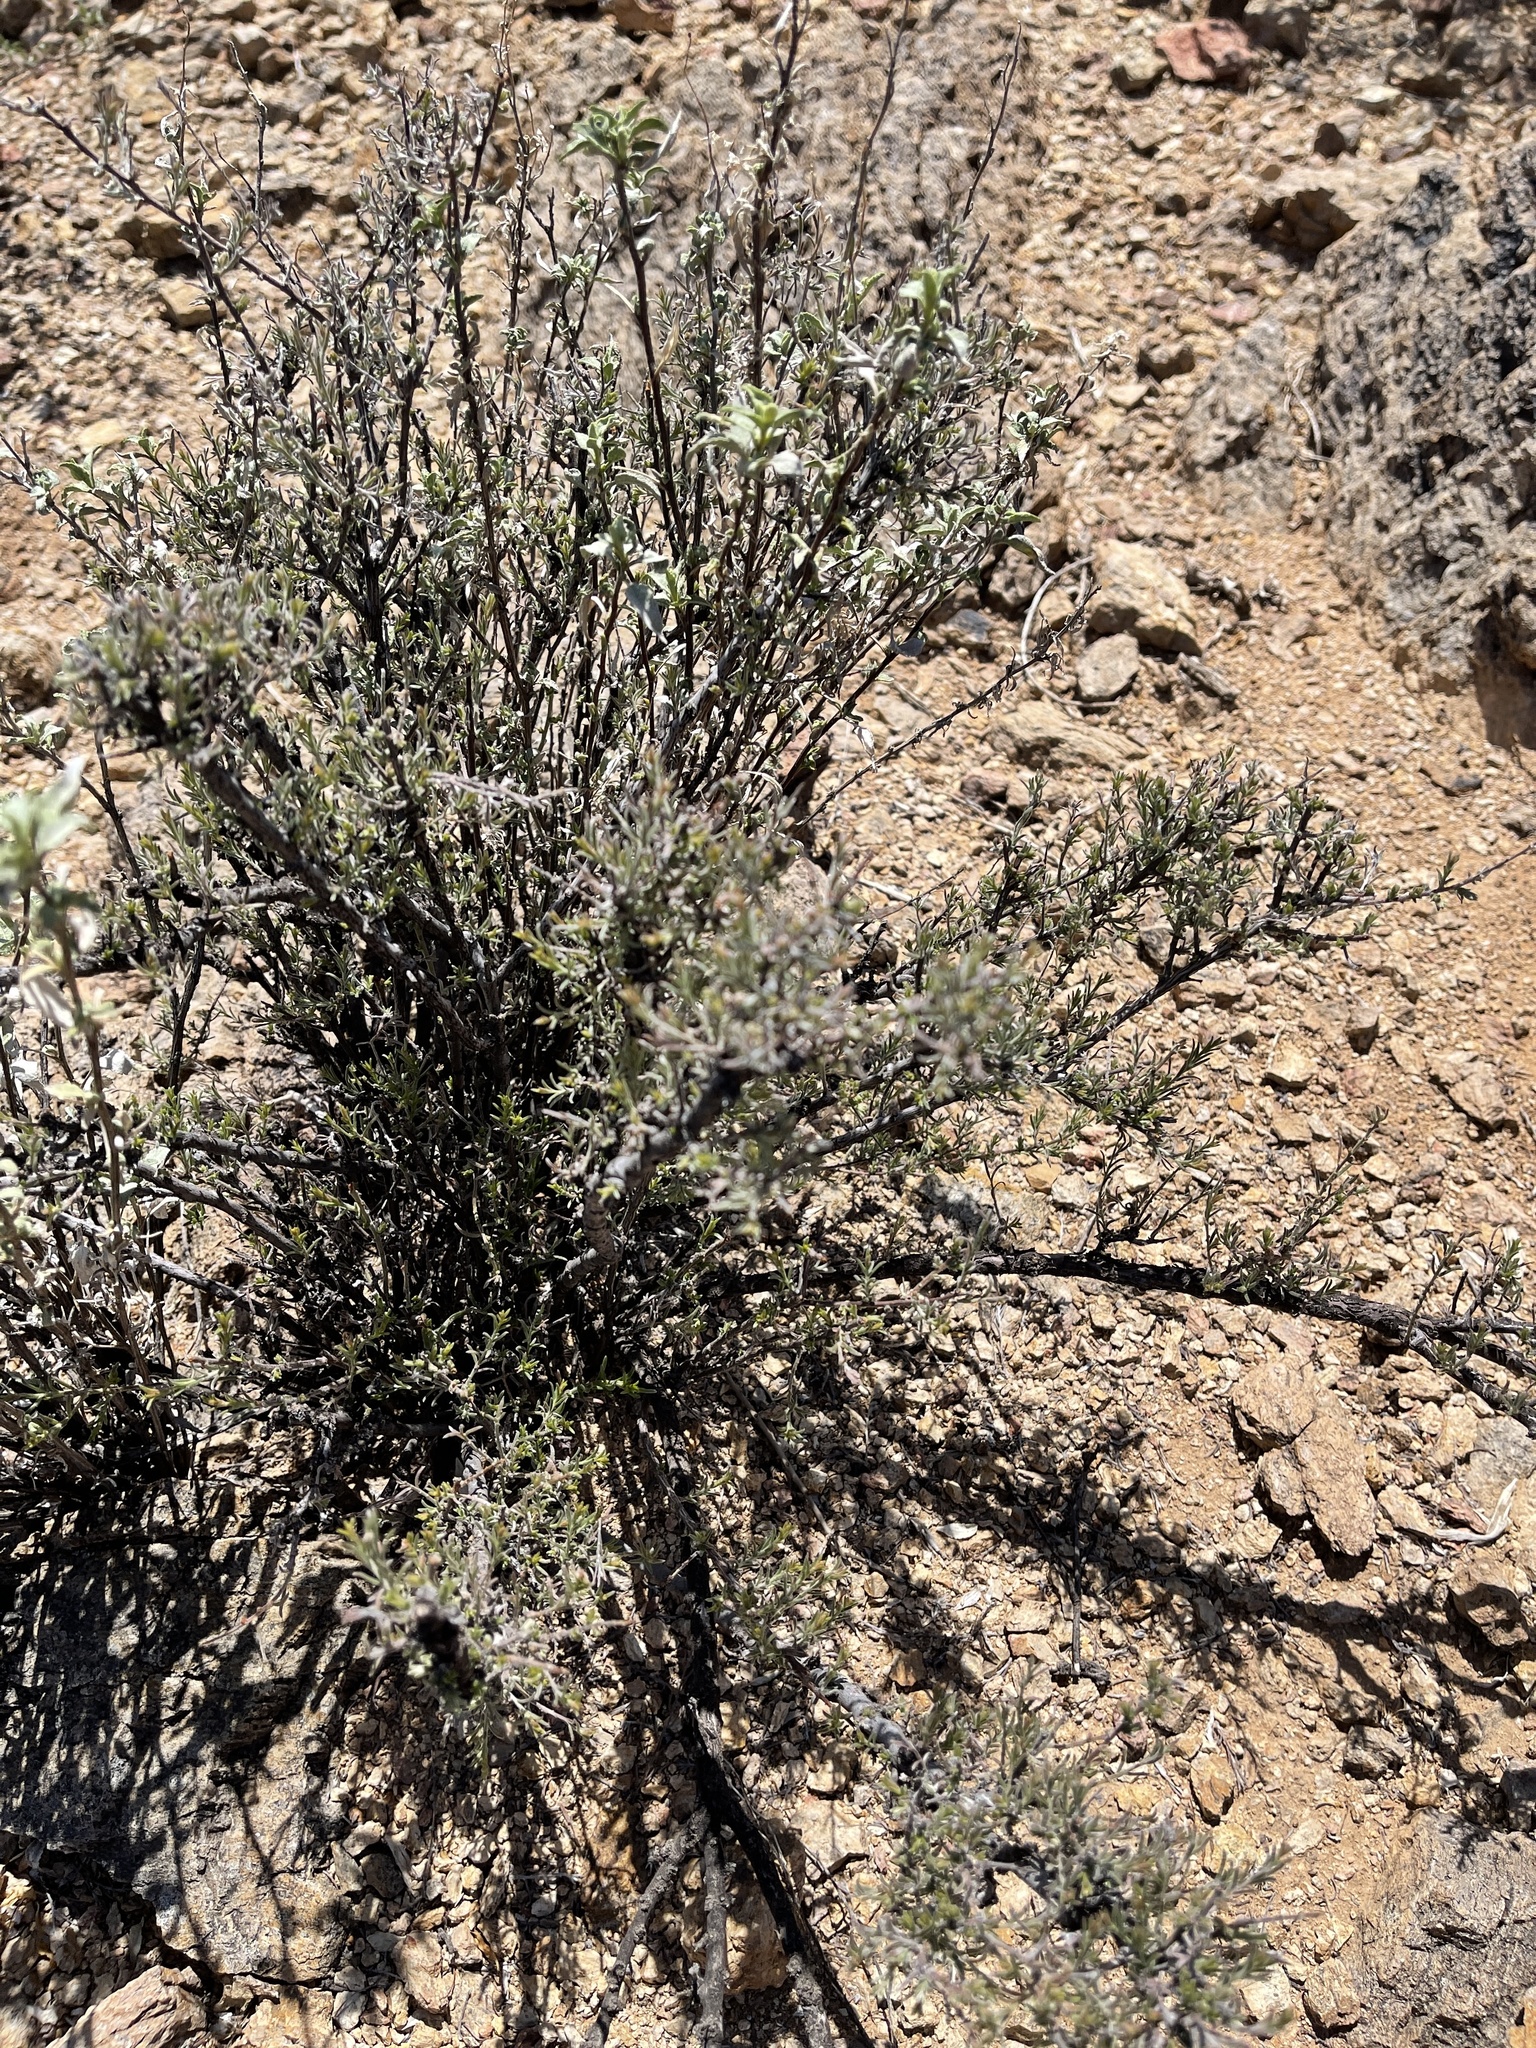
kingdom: Plantae
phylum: Tracheophyta
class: Magnoliopsida
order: Zygophyllales
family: Krameriaceae
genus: Krameria
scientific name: Krameria erecta
